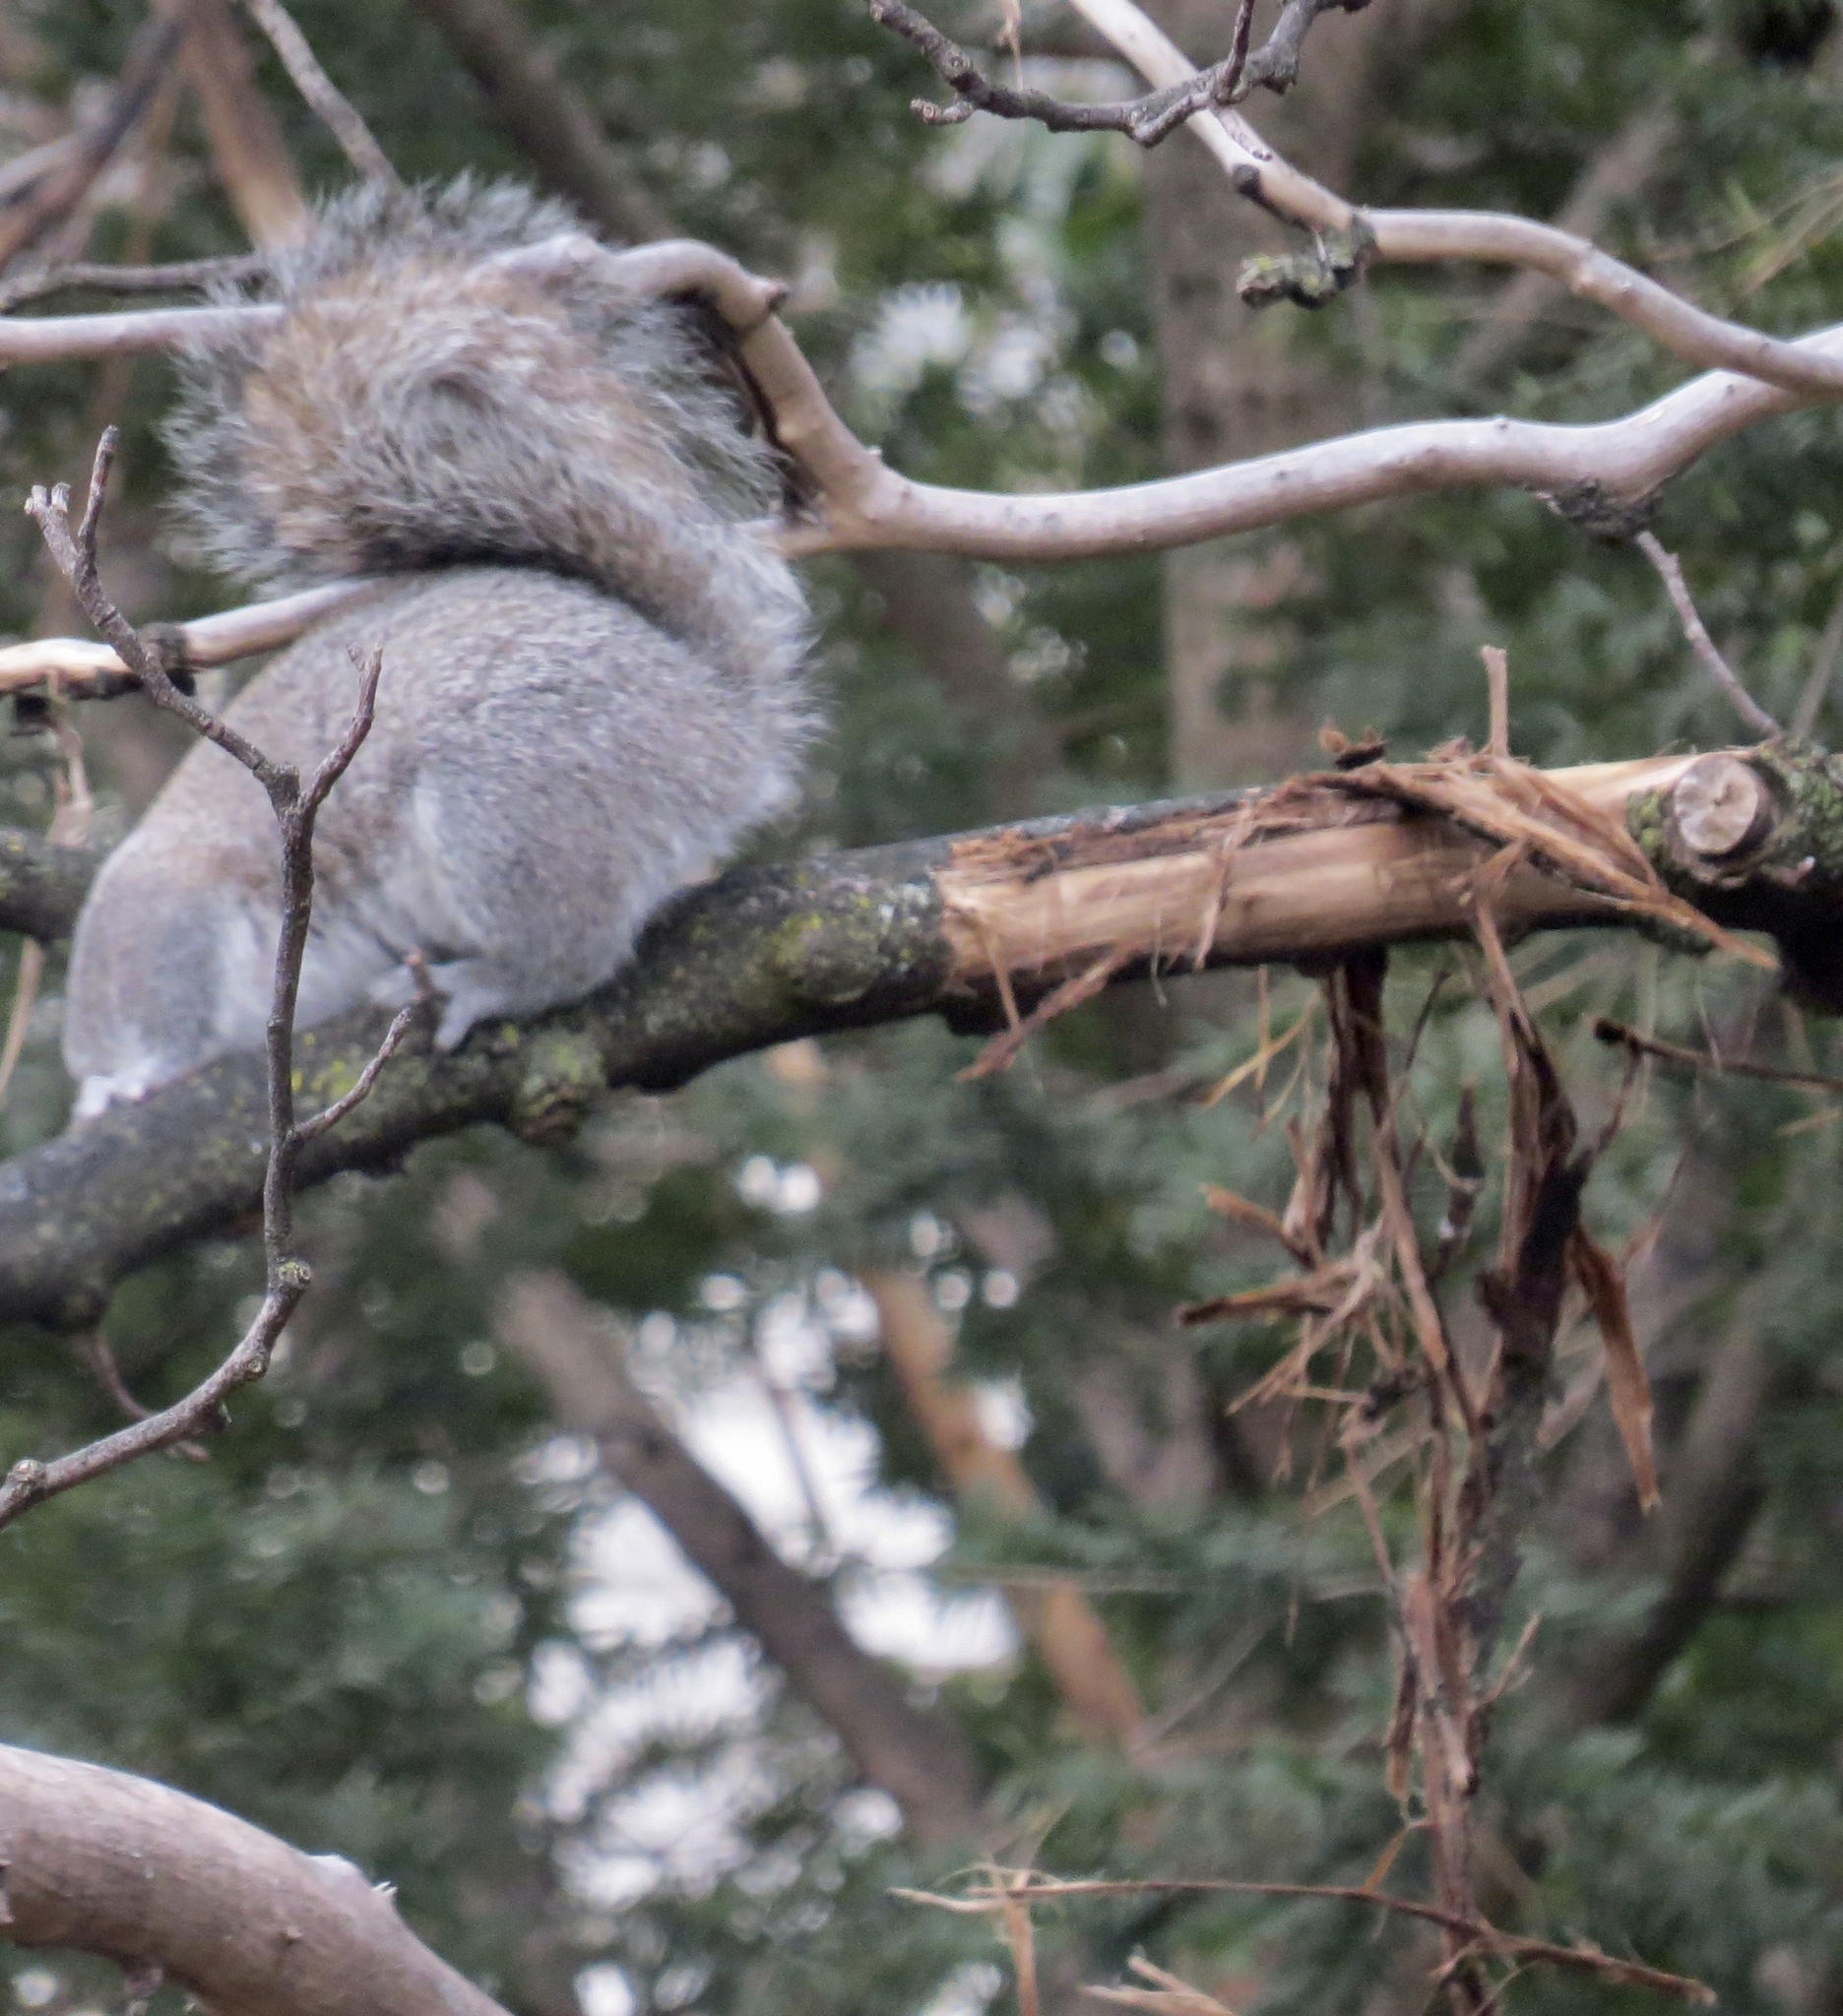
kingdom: Animalia
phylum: Chordata
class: Mammalia
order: Rodentia
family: Sciuridae
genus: Sciurus
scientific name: Sciurus carolinensis
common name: Eastern gray squirrel
